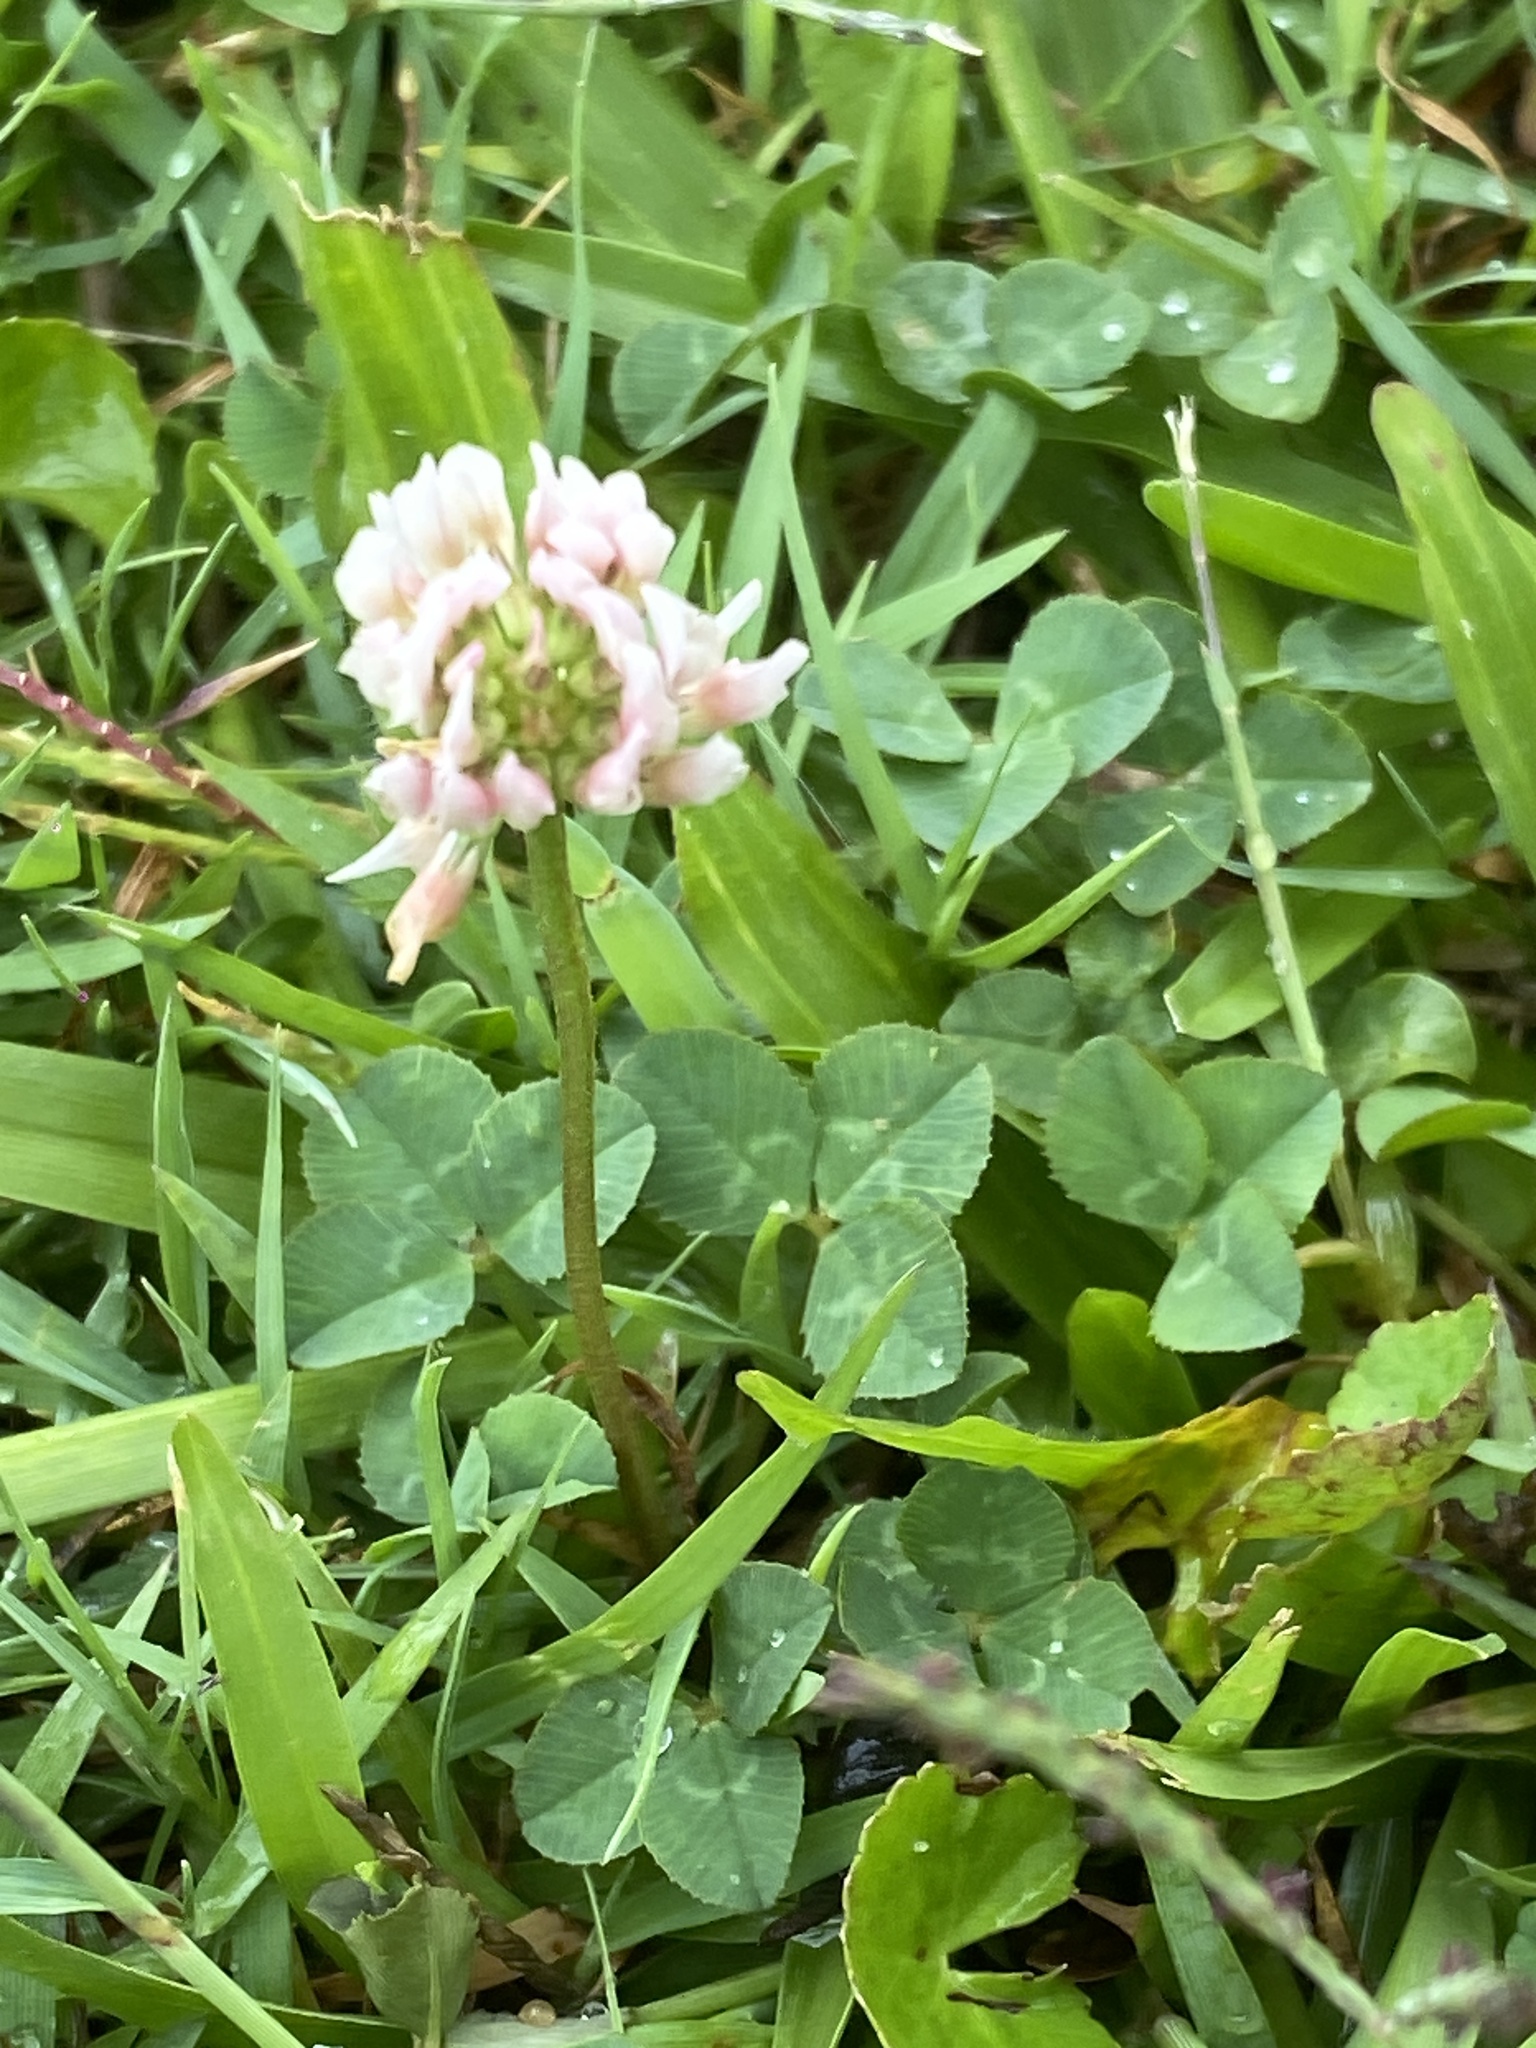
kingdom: Plantae
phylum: Tracheophyta
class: Magnoliopsida
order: Fabales
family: Fabaceae
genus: Trifolium
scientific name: Trifolium repens
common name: White clover
